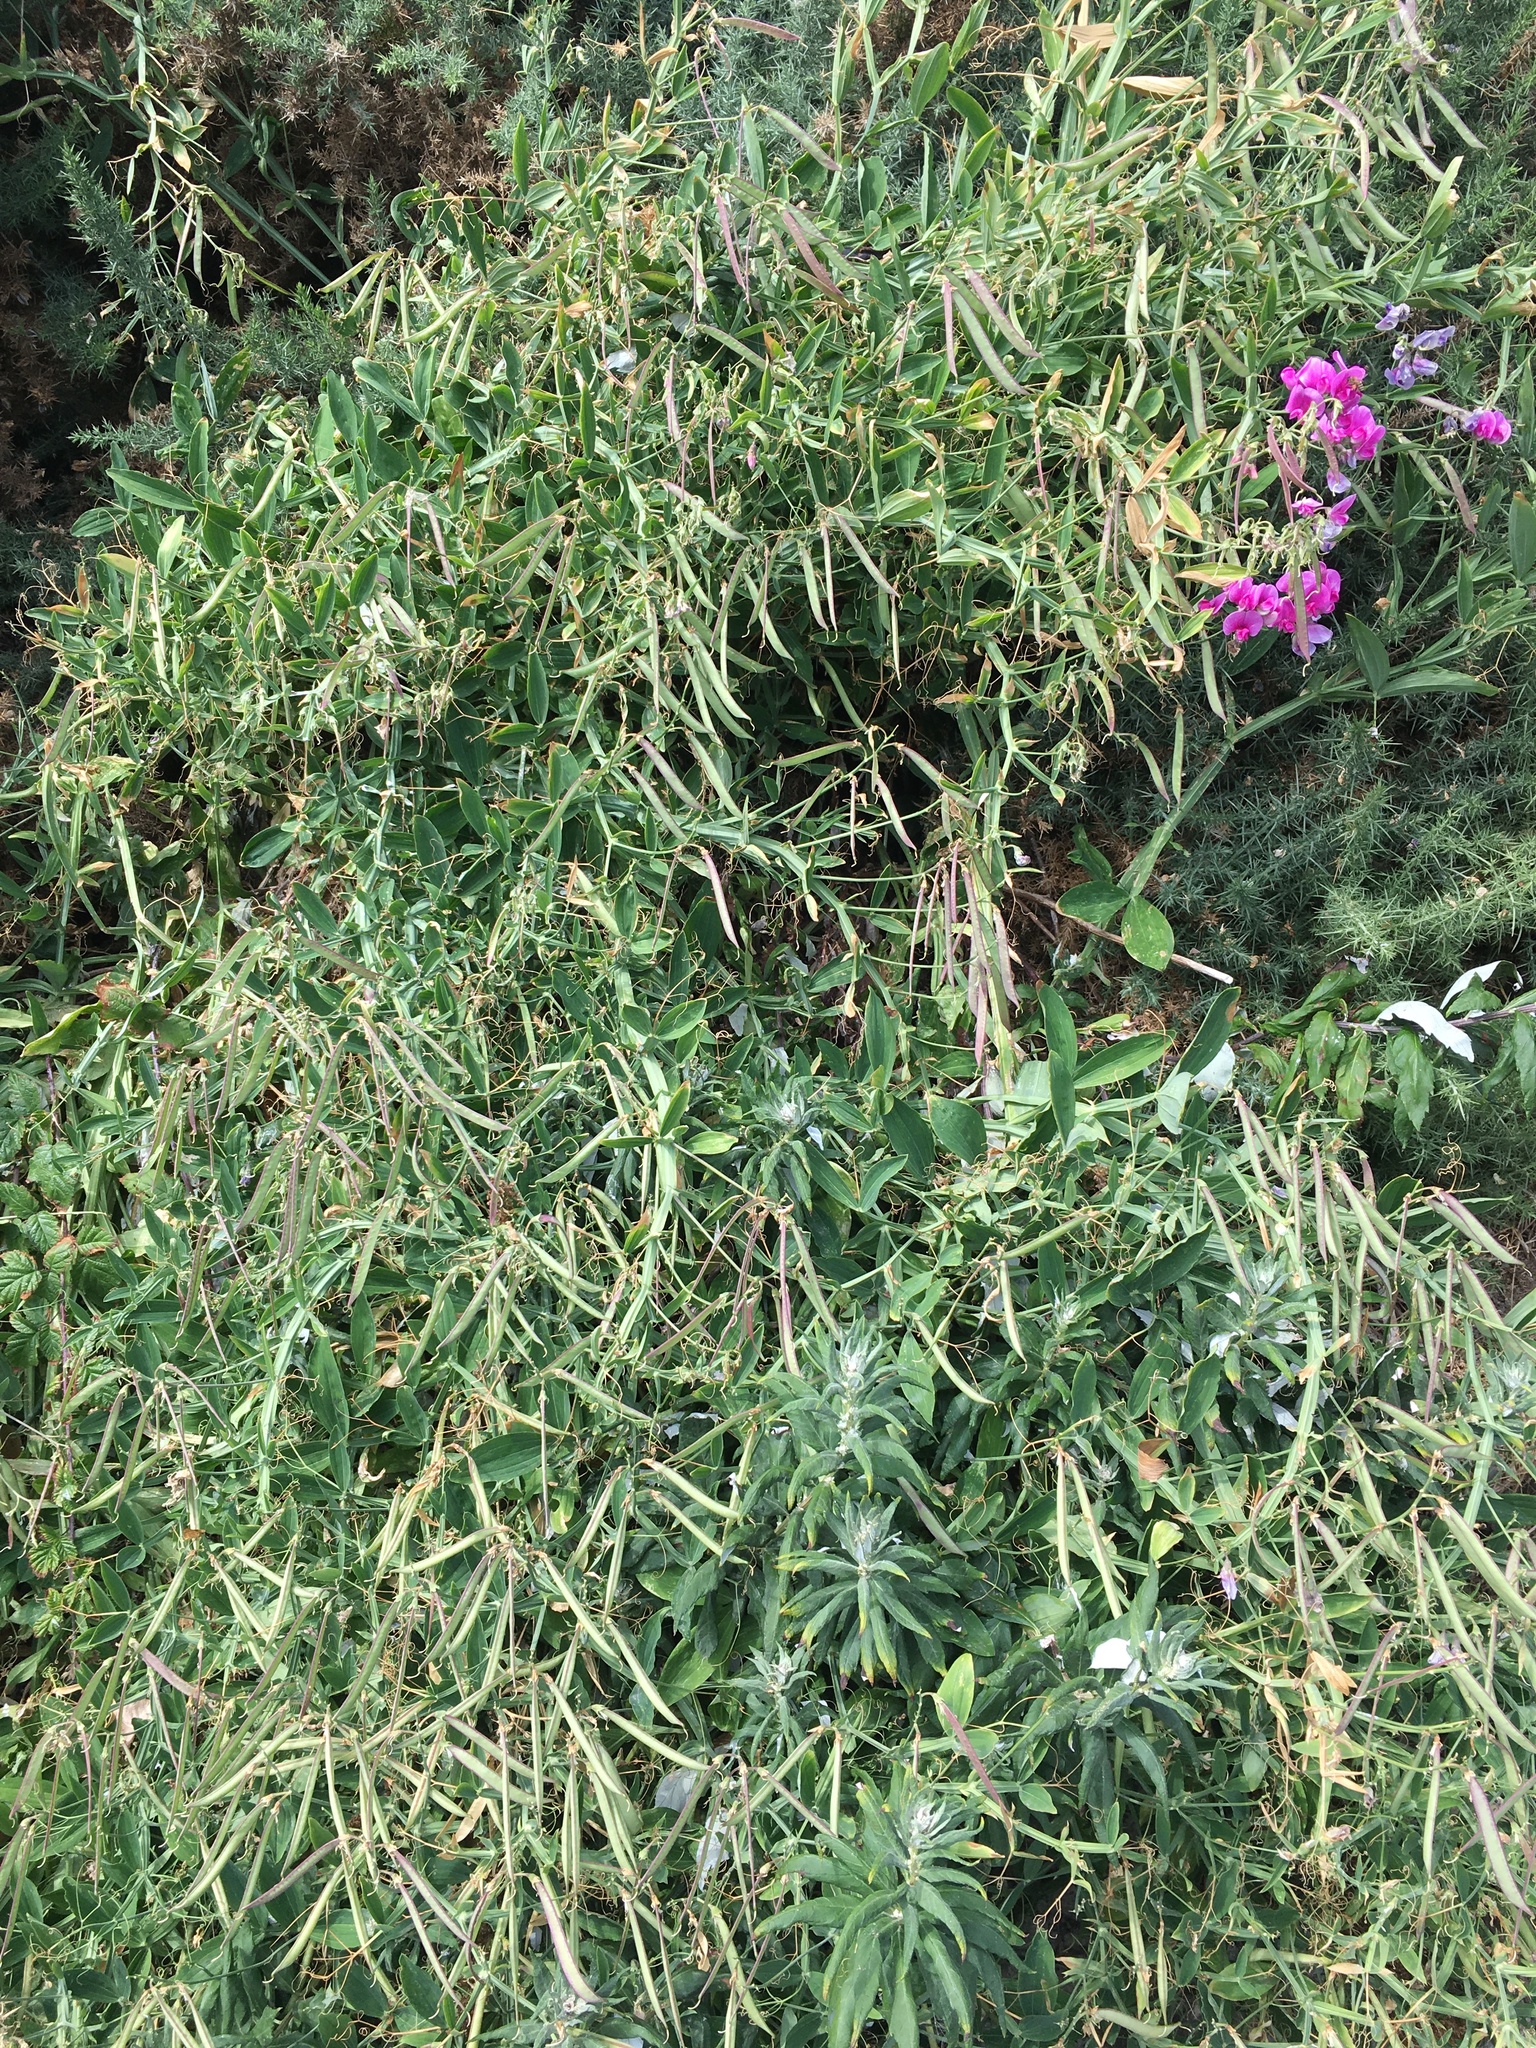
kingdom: Plantae
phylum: Tracheophyta
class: Magnoliopsida
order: Fabales
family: Fabaceae
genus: Lathyrus
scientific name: Lathyrus latifolius
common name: Perennial pea
